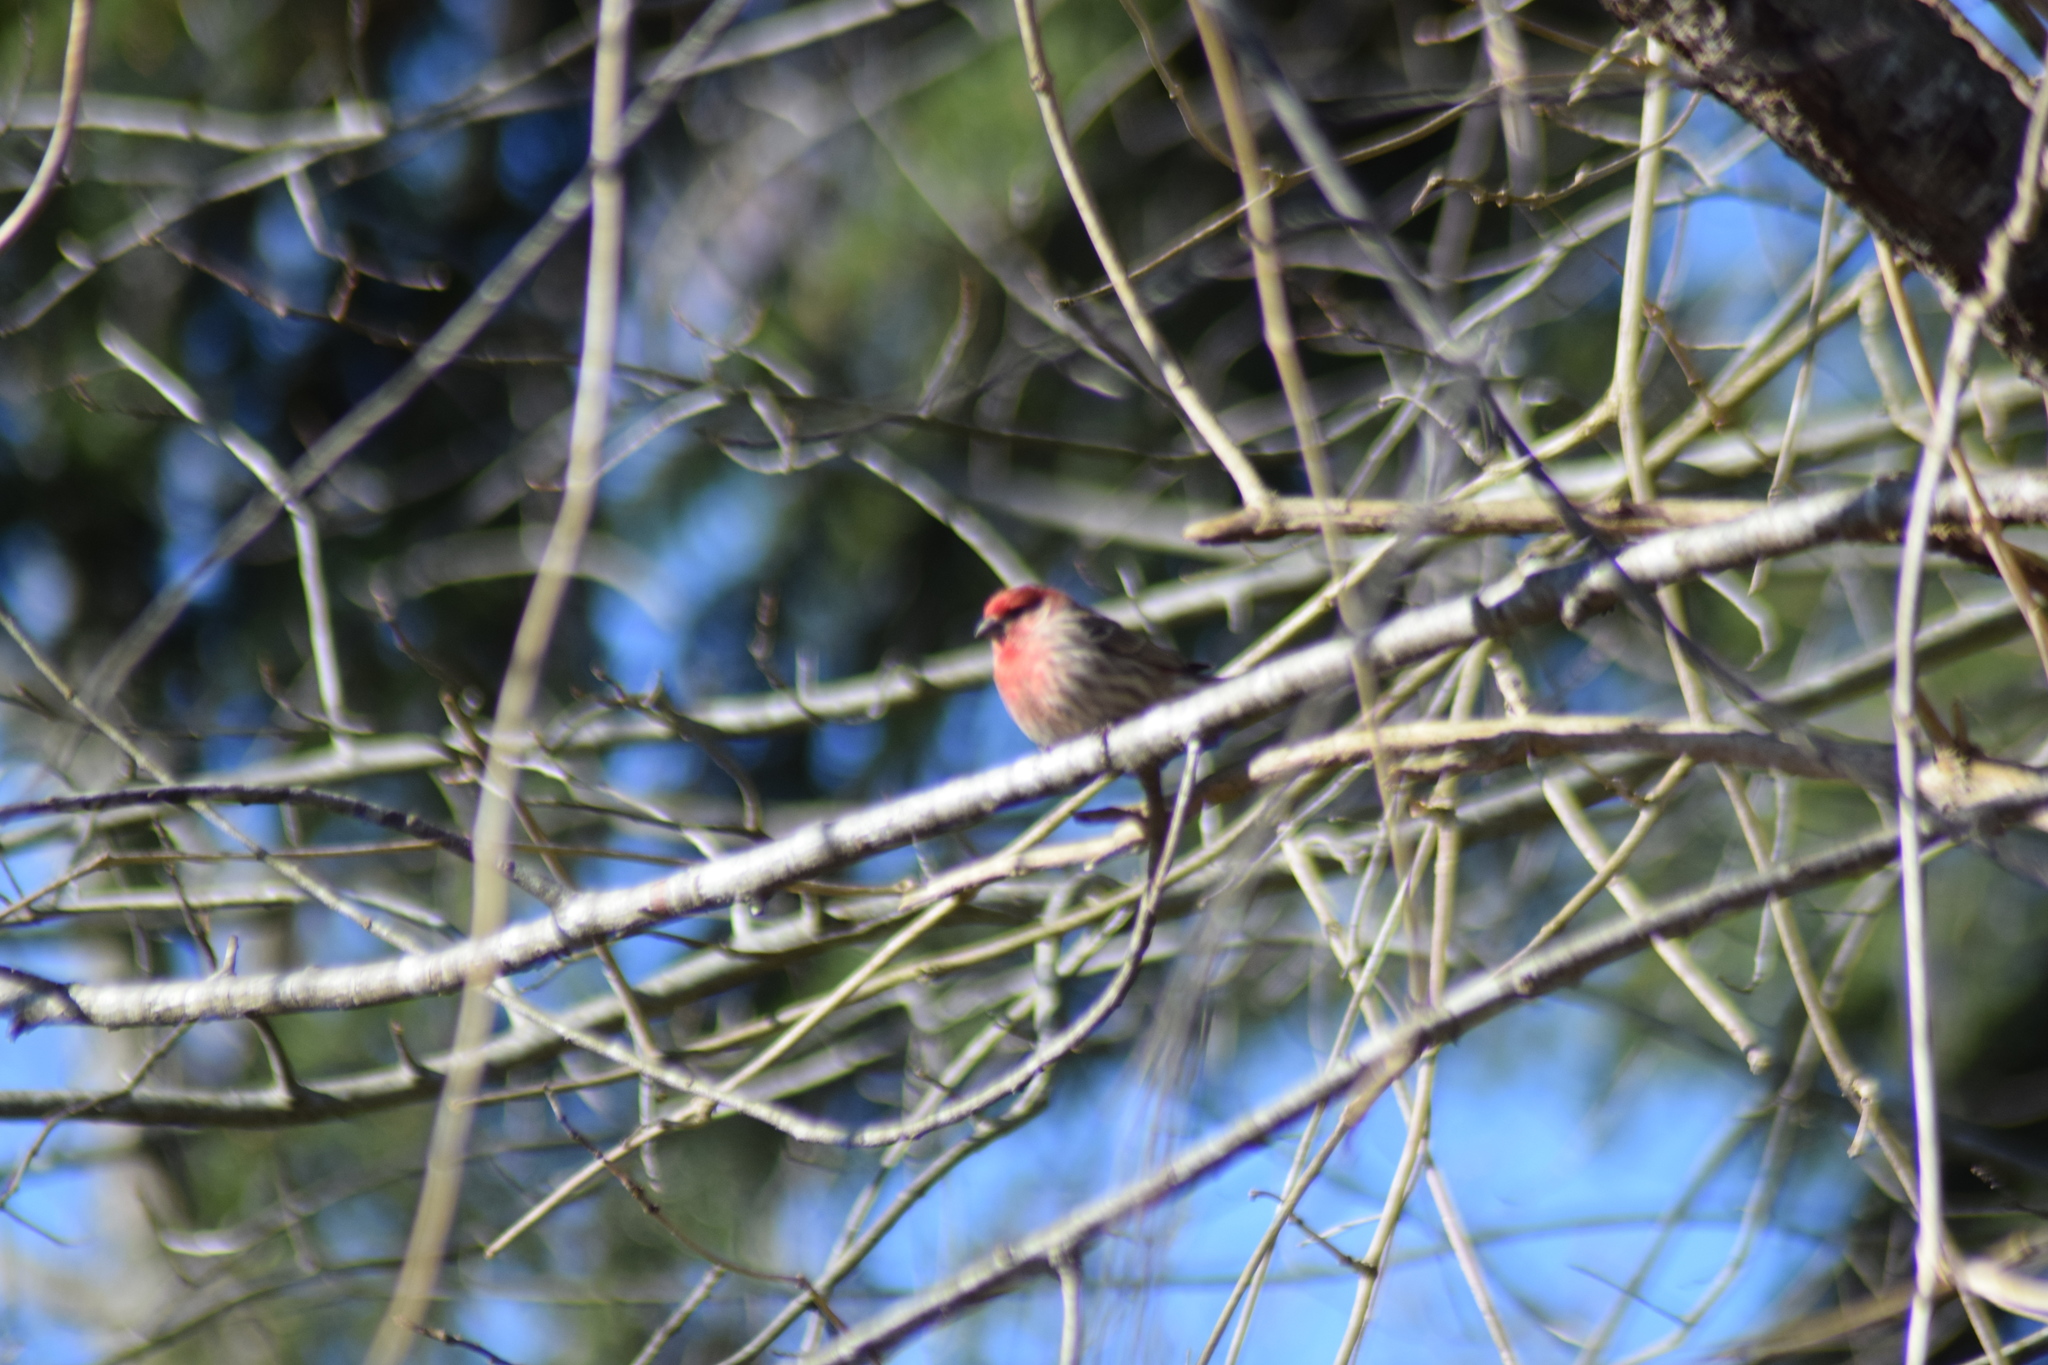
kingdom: Animalia
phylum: Chordata
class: Aves
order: Passeriformes
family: Fringillidae
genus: Haemorhous
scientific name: Haemorhous mexicanus
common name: House finch
